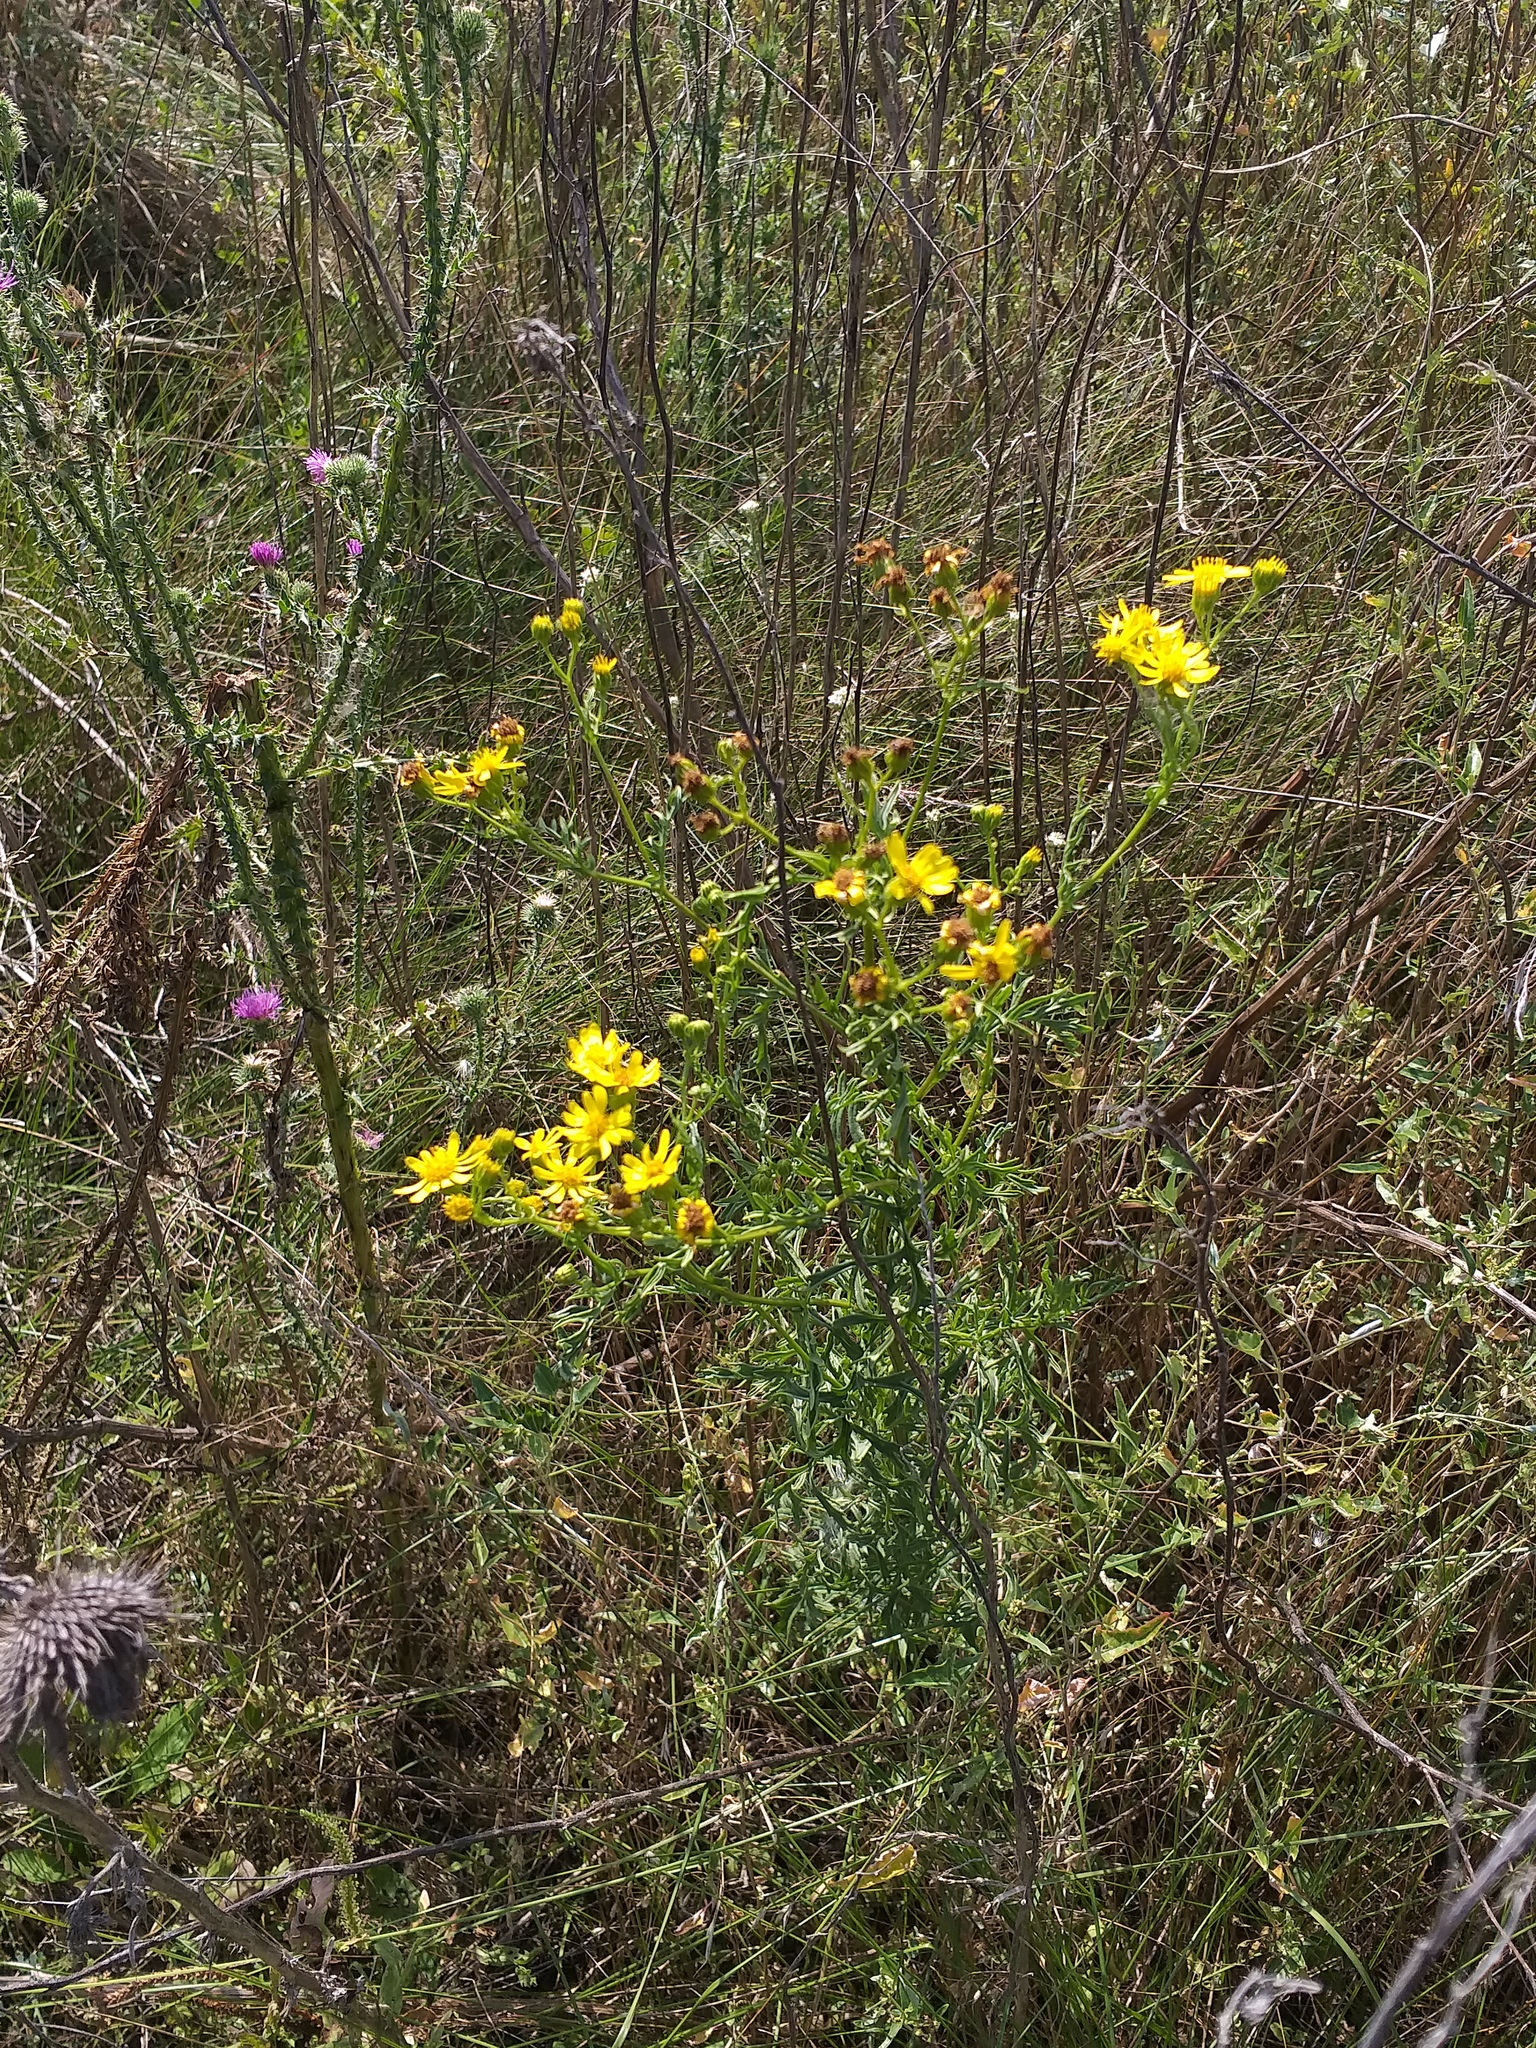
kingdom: Plantae
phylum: Tracheophyta
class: Magnoliopsida
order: Asterales
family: Asteraceae
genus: Jacobaea
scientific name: Jacobaea erucifolia
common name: Hoary ragwort
